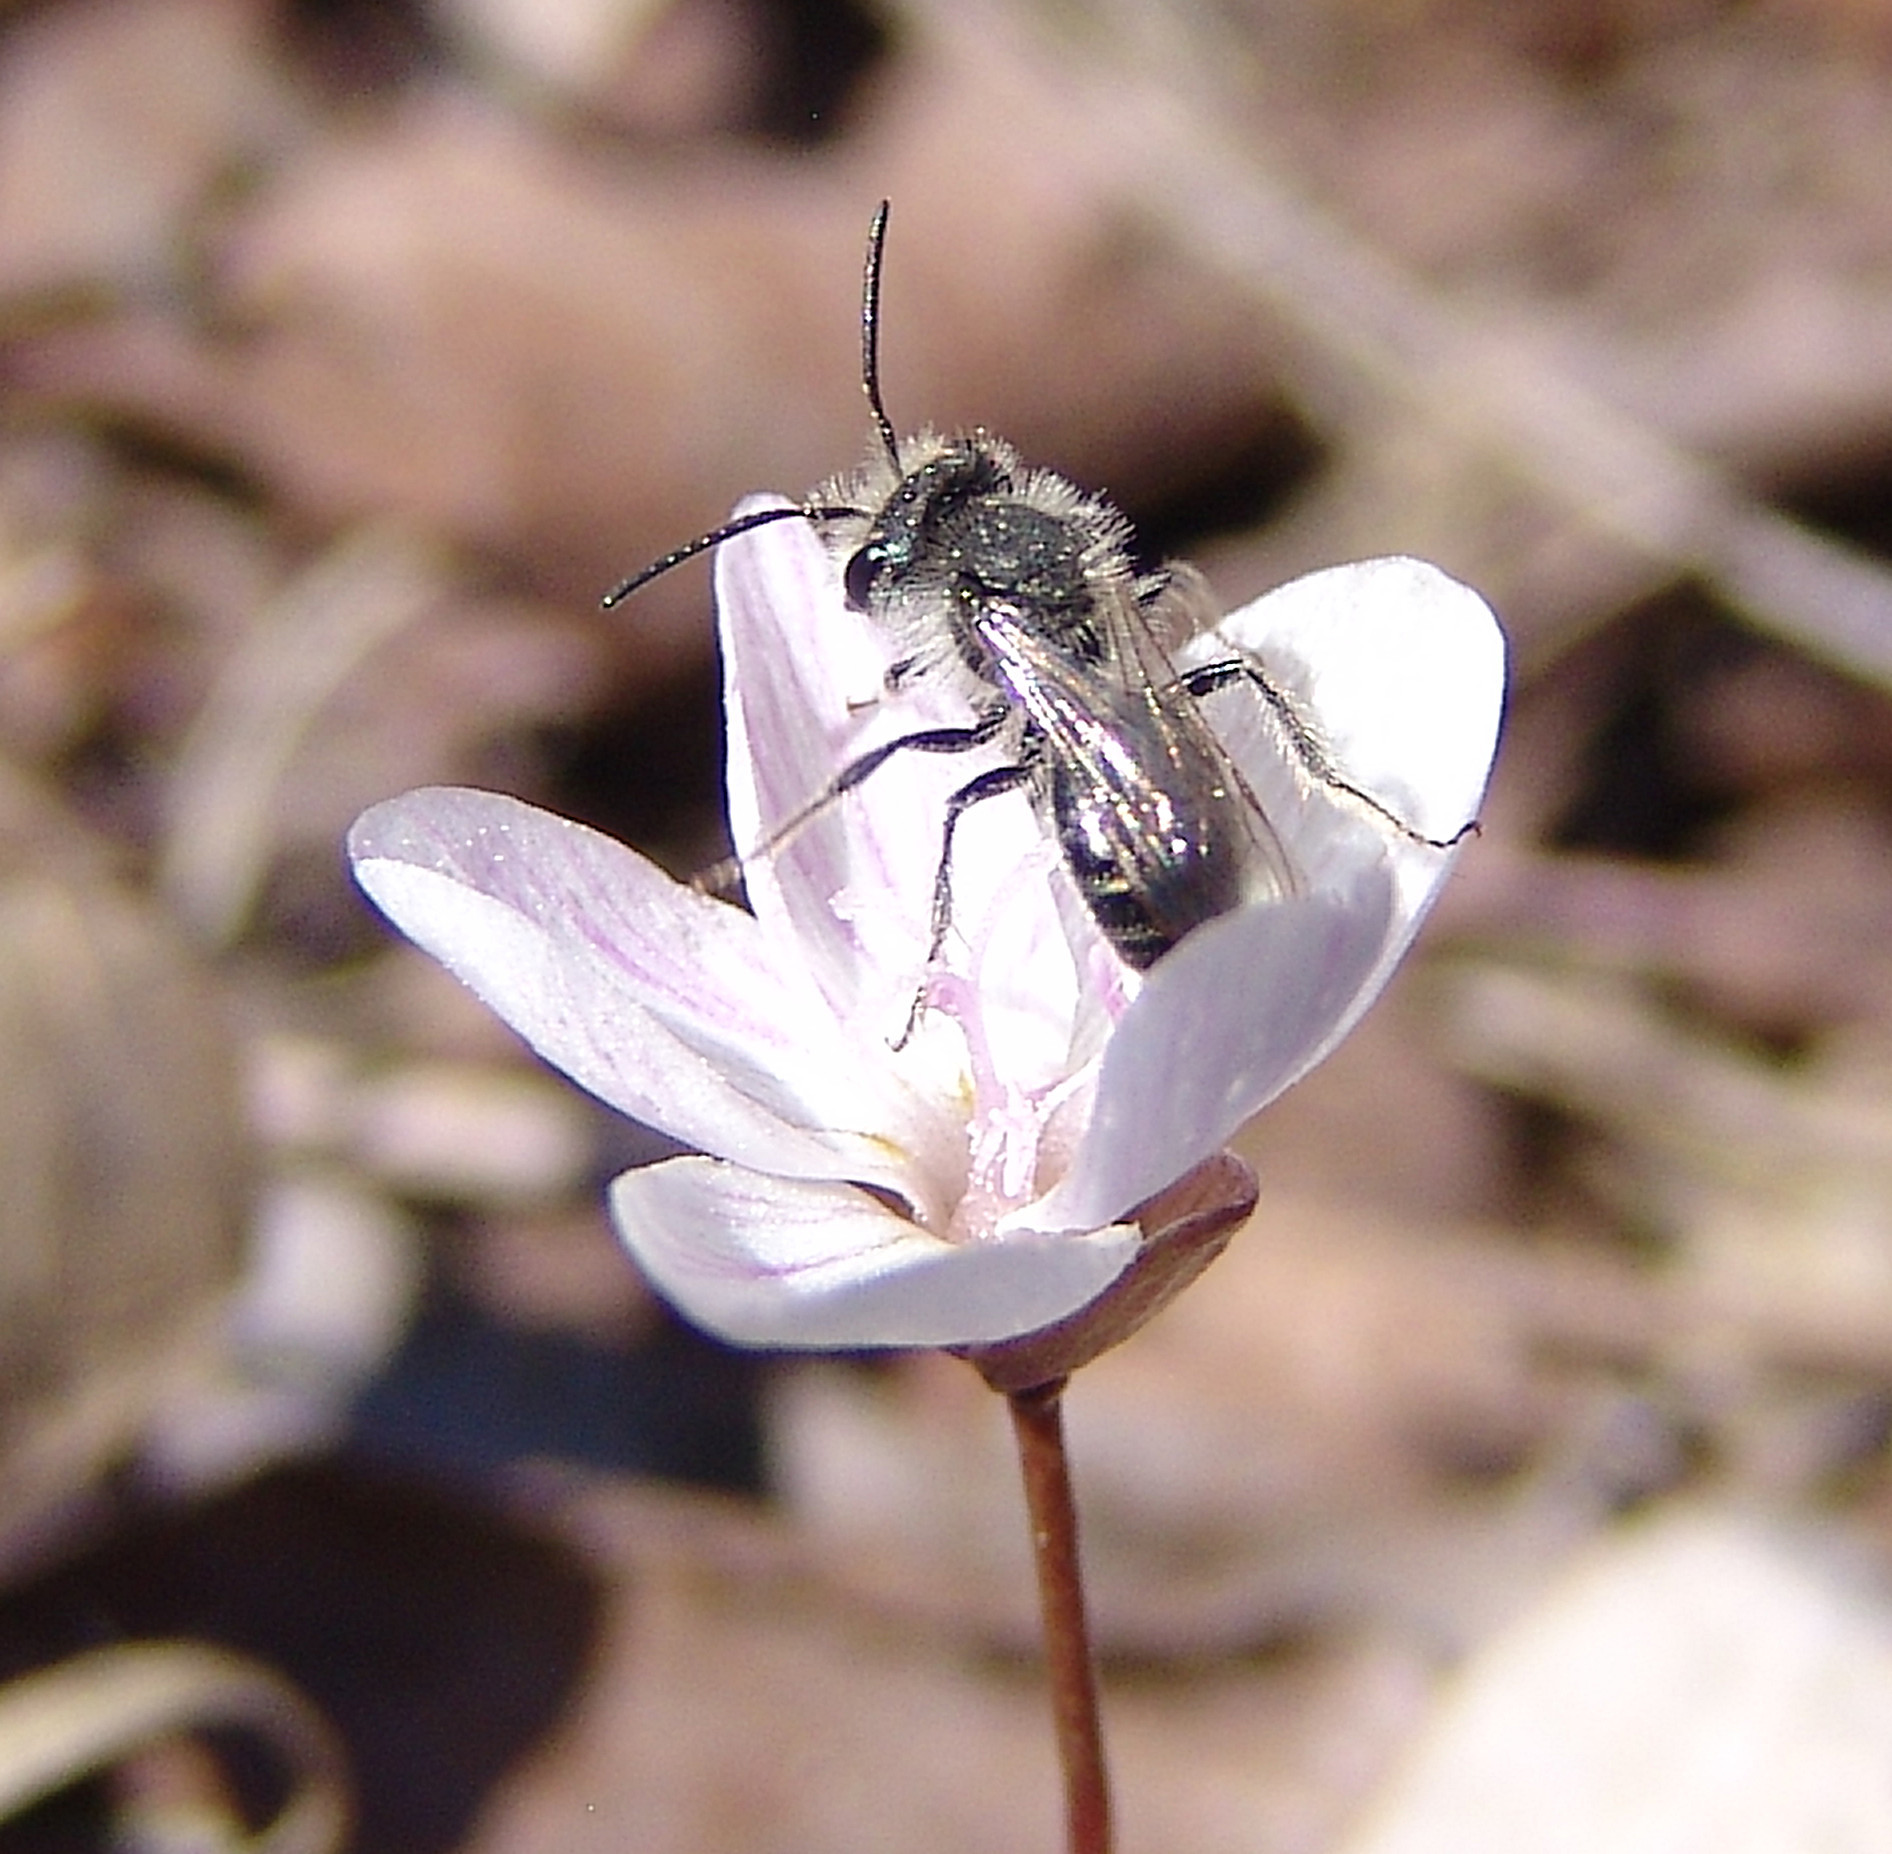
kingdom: Animalia
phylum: Arthropoda
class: Insecta
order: Hymenoptera
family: Andrenidae
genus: Andrena
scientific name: Andrena erigeniae
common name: Spring beauty miner
